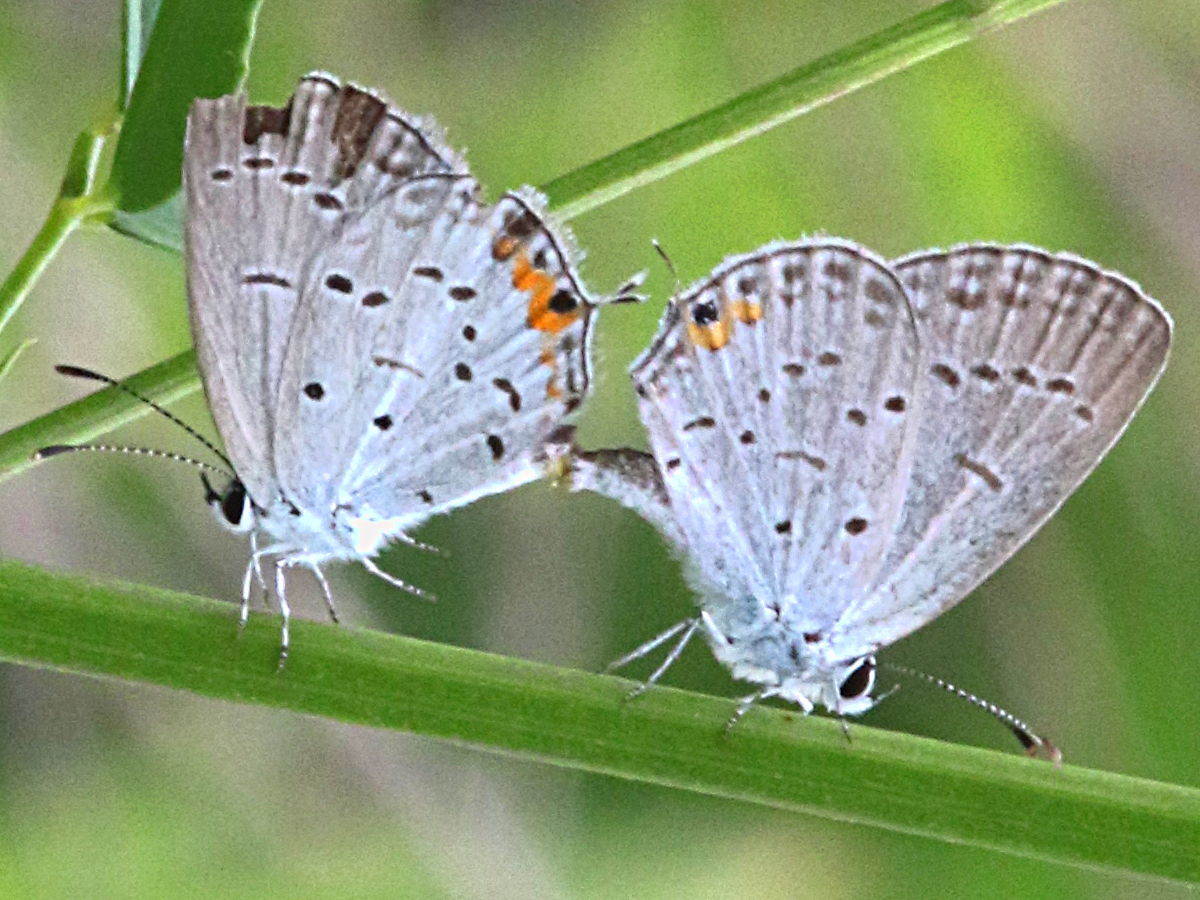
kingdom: Animalia
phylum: Arthropoda
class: Insecta
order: Lepidoptera
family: Lycaenidae
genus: Elkalyce
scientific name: Elkalyce comyntas
